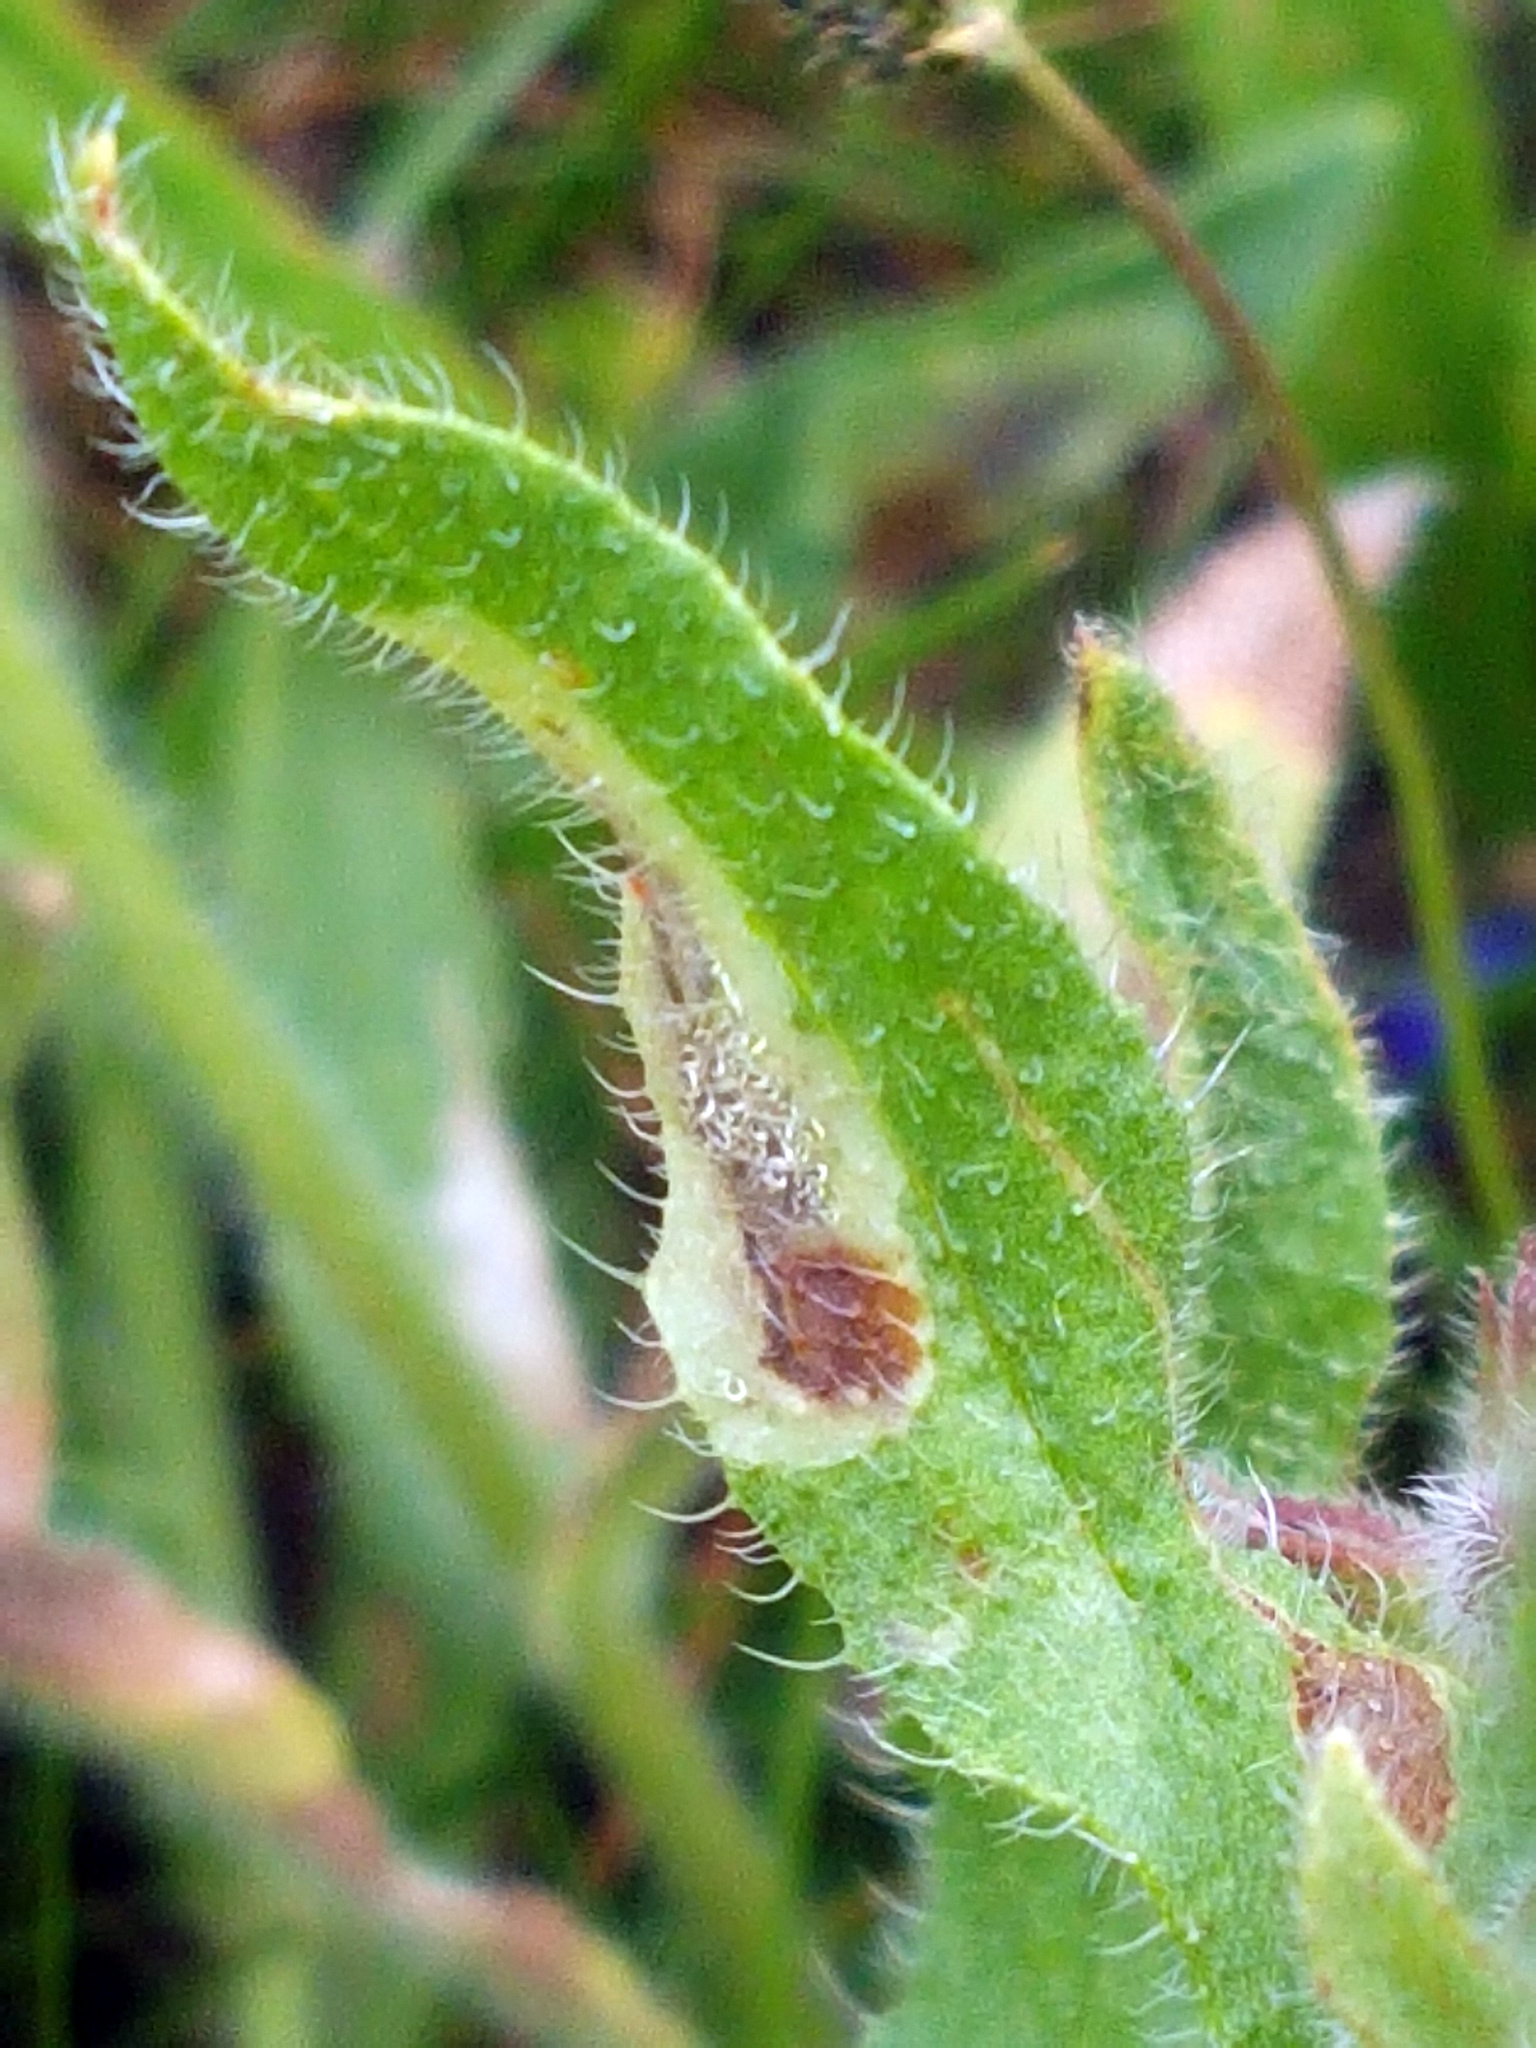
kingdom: Plantae
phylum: Tracheophyta
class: Magnoliopsida
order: Boraginales
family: Boraginaceae
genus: Anchusa
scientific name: Anchusa officinalis
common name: Alkanet
